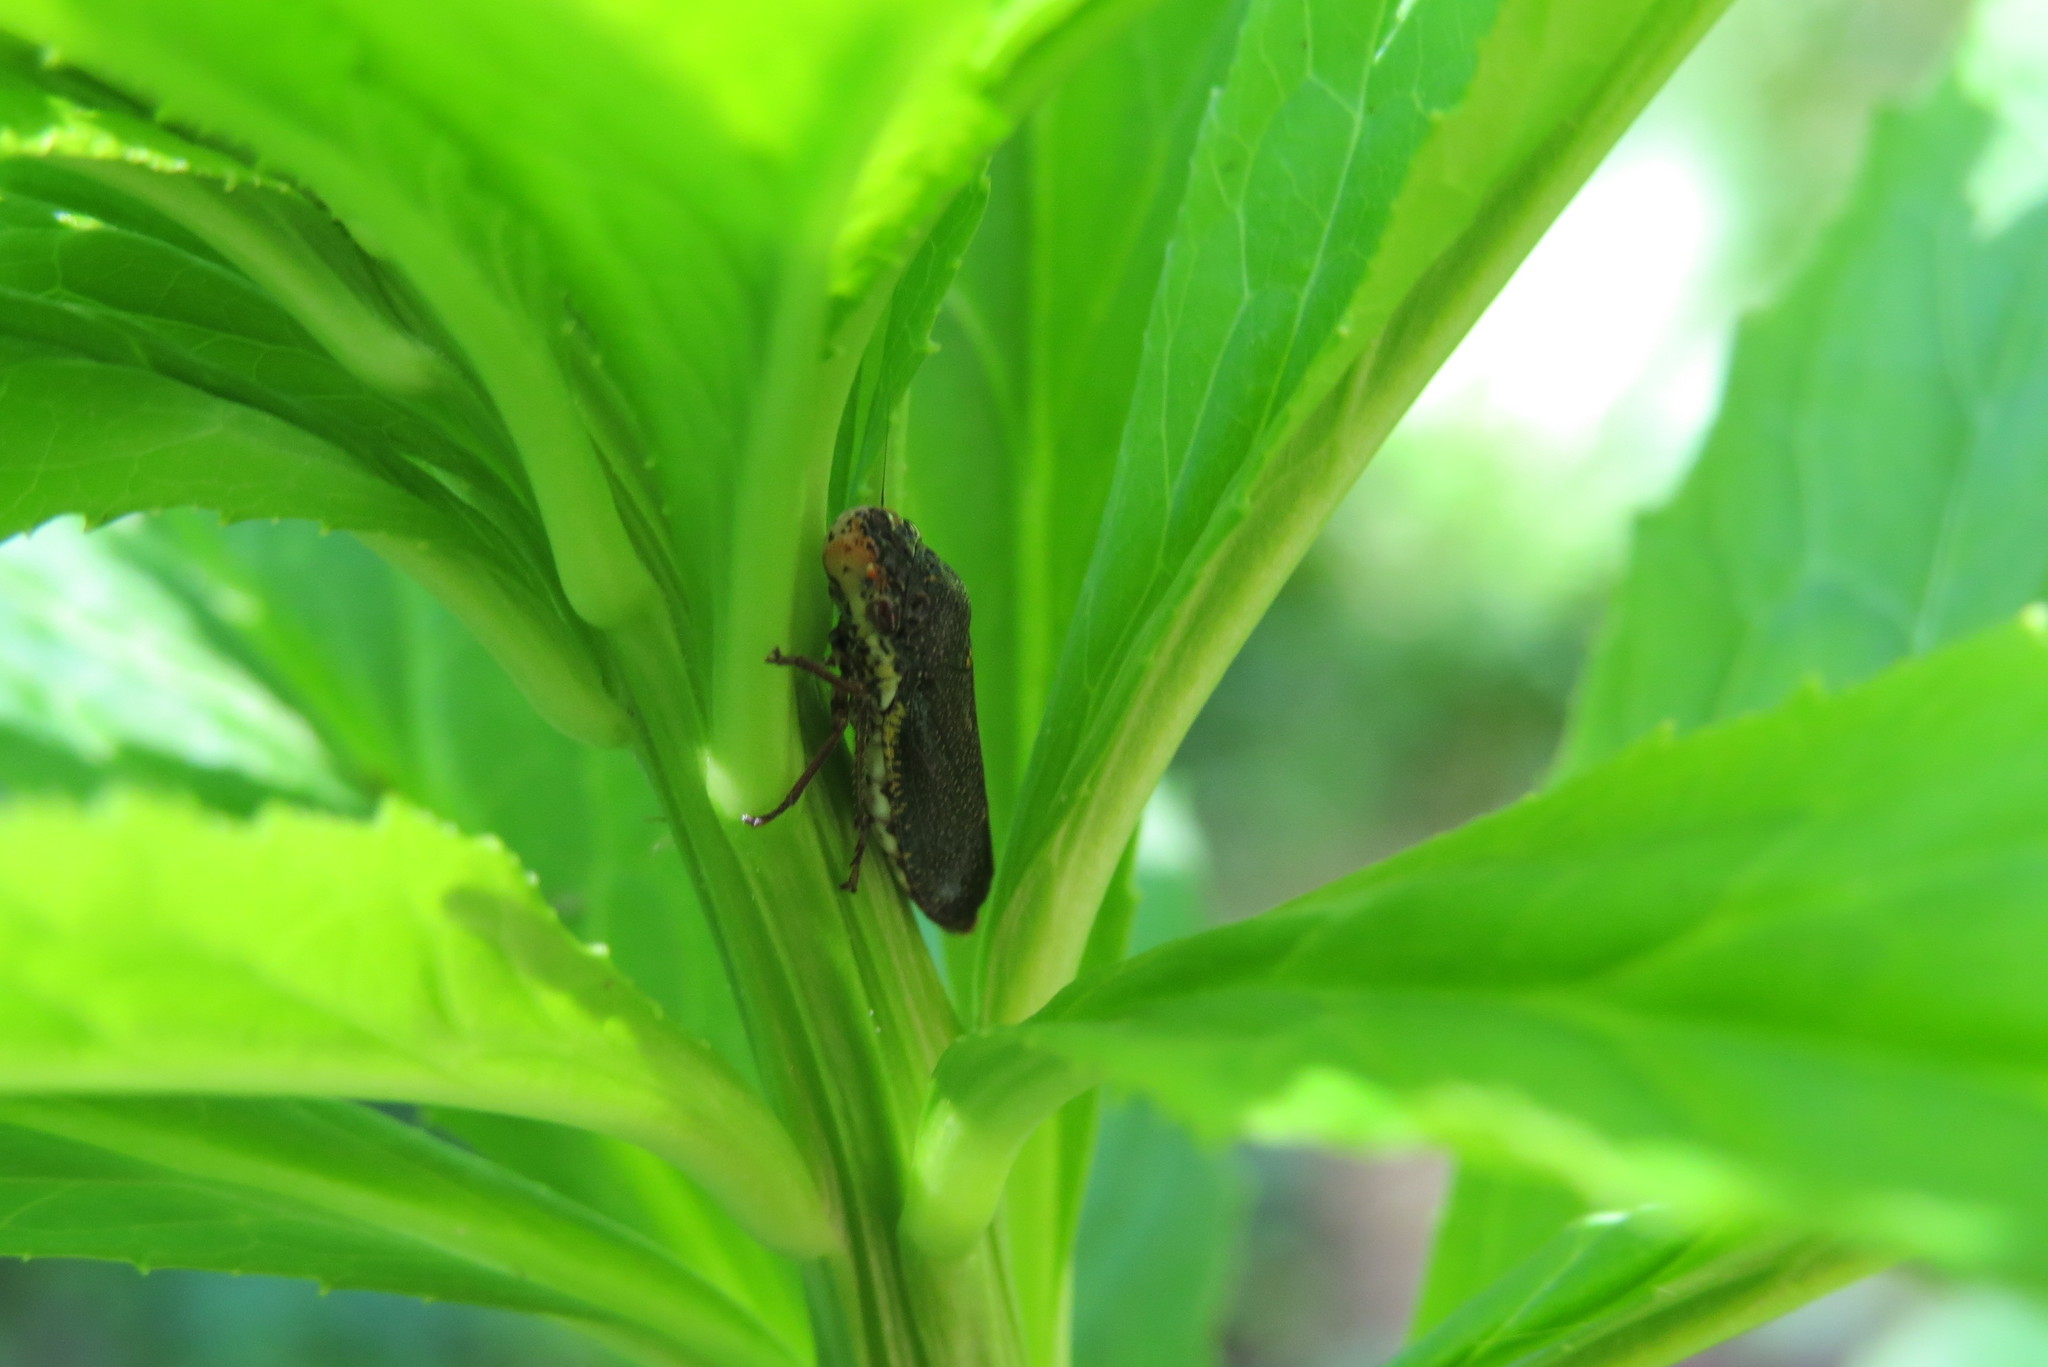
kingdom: Animalia
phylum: Arthropoda
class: Insecta
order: Hemiptera
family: Cicadellidae
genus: Paraulacizes
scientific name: Paraulacizes irrorata
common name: Speckled sharpshooter
